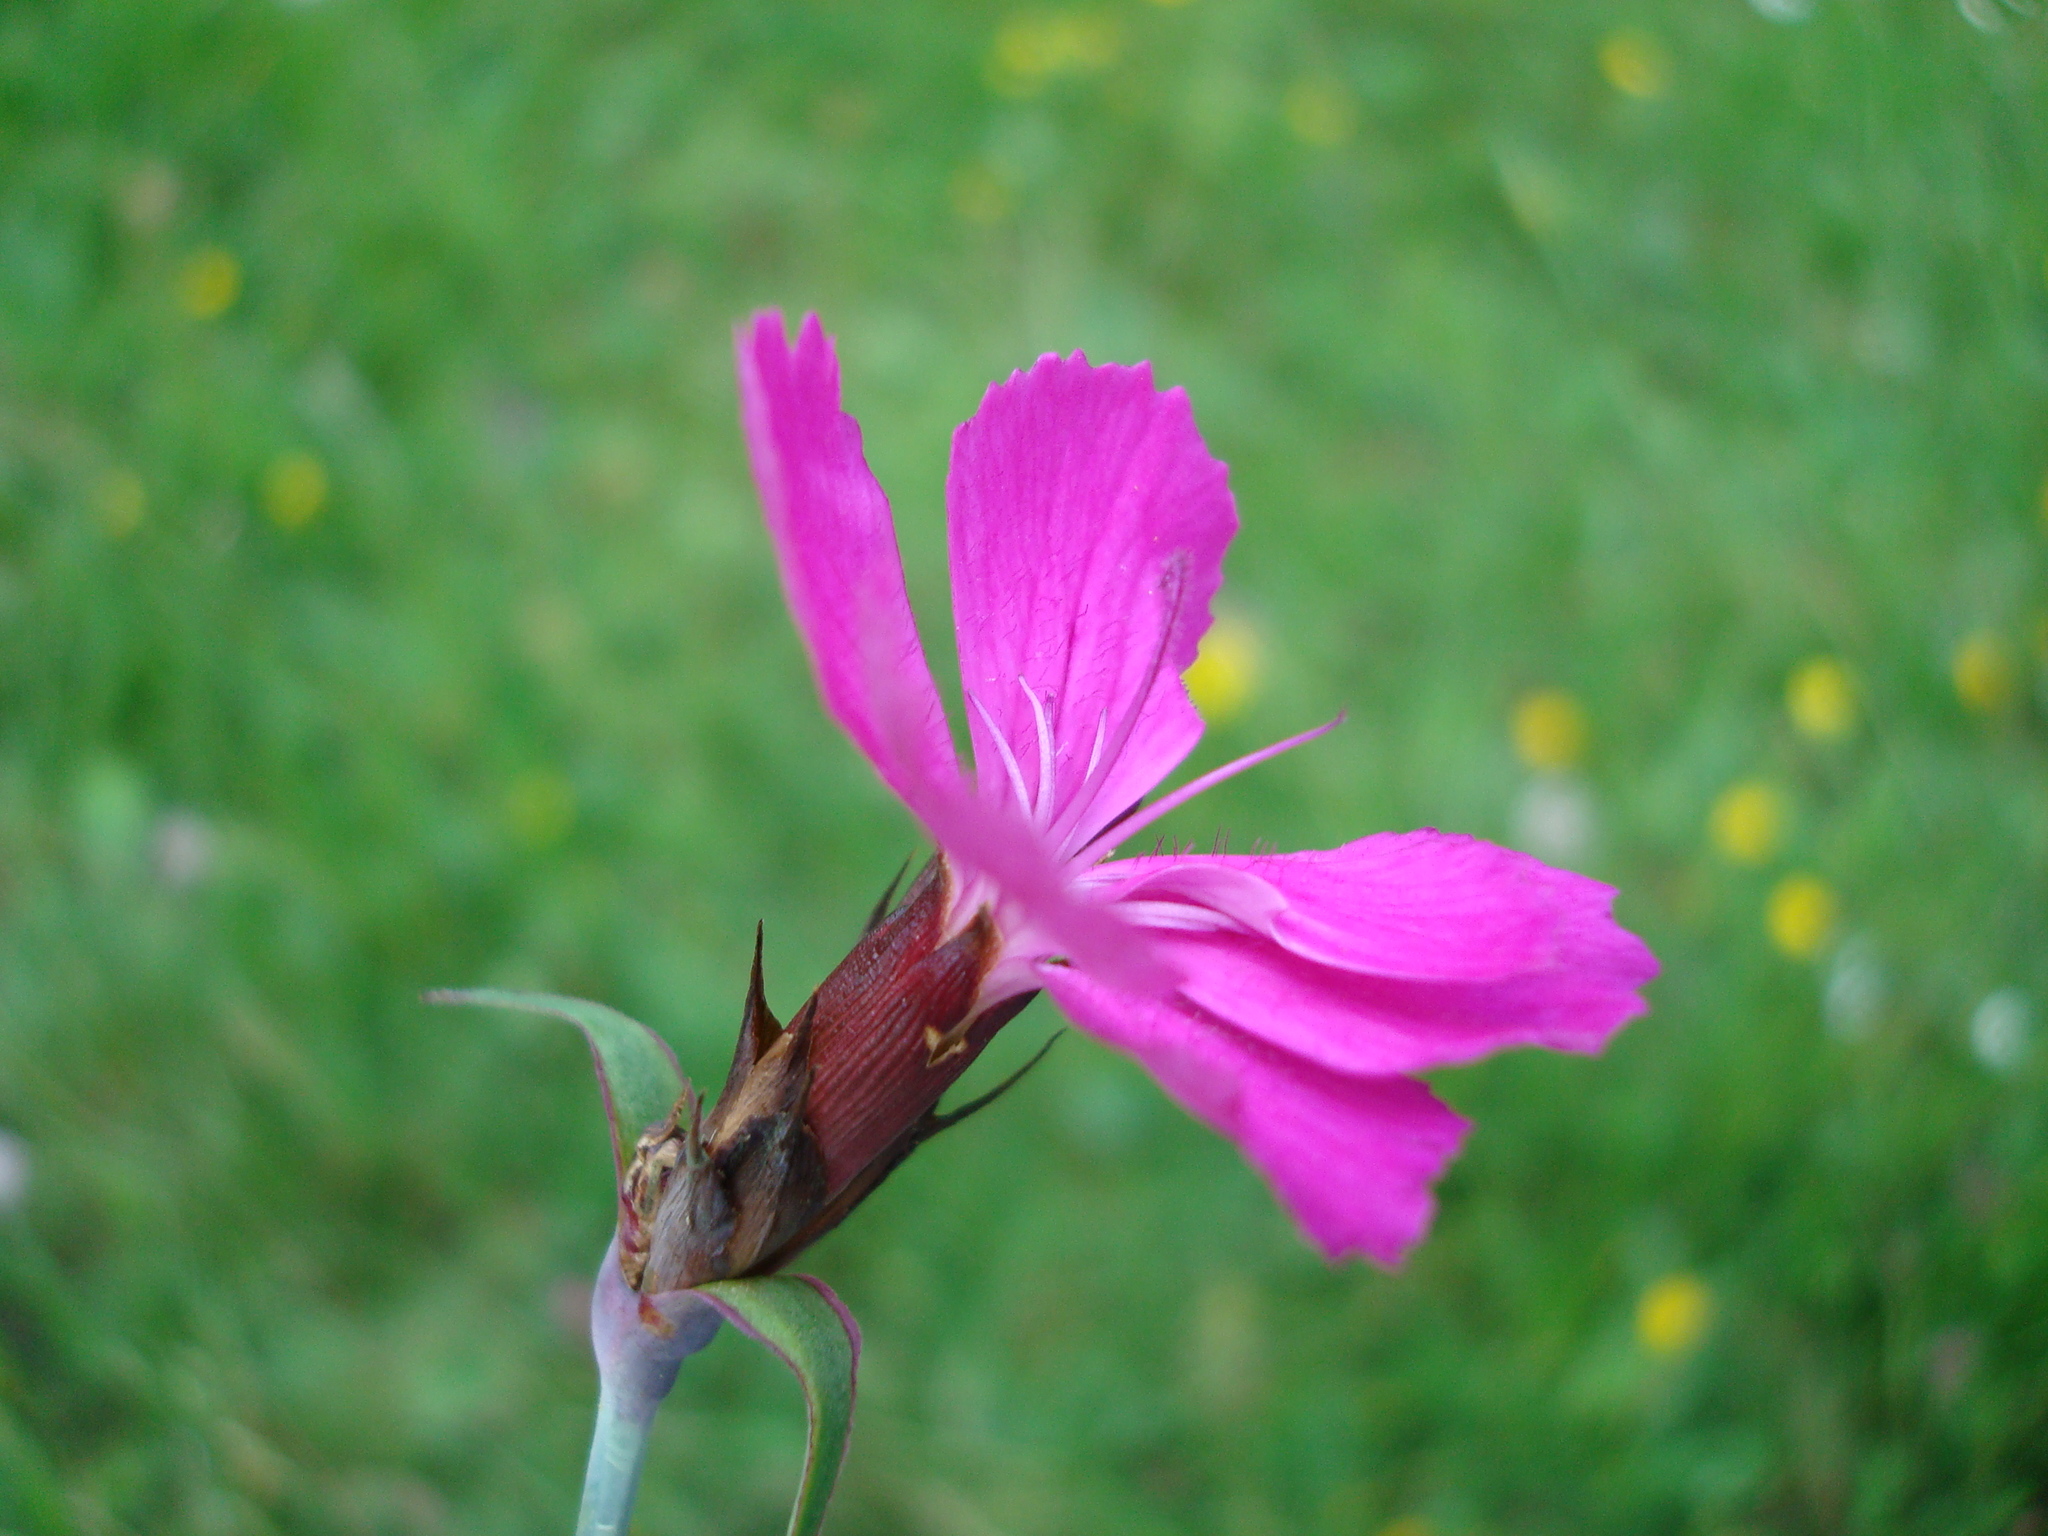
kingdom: Plantae
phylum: Tracheophyta
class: Magnoliopsida
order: Caryophyllales
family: Caryophyllaceae
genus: Dianthus
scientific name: Dianthus carthusianorum
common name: Carthusian pink
